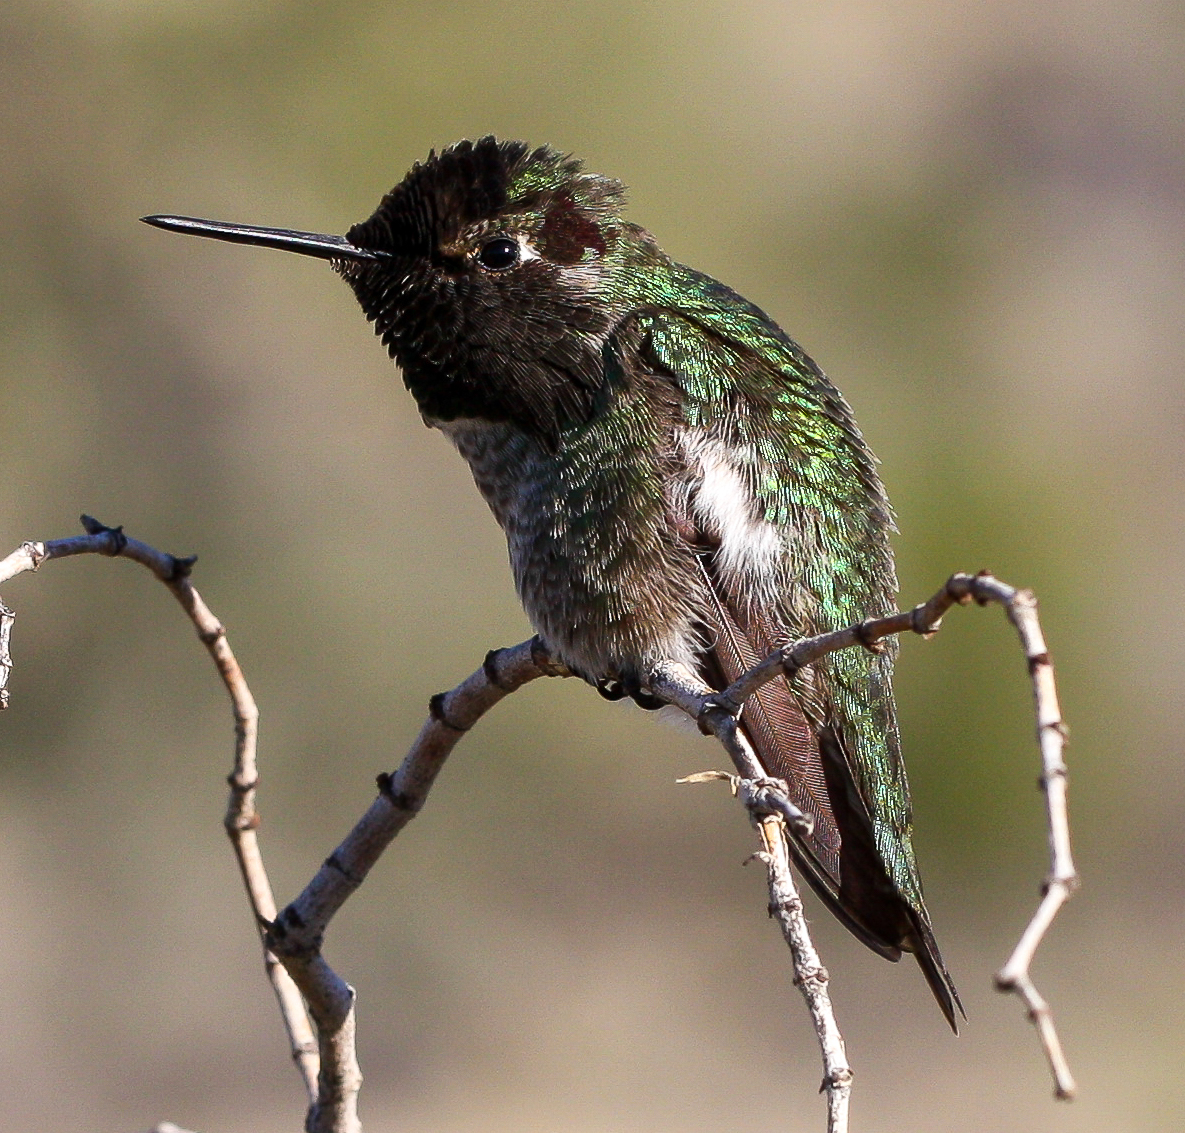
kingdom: Animalia
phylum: Chordata
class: Aves
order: Apodiformes
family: Trochilidae
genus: Calypte
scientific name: Calypte anna
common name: Anna's hummingbird
